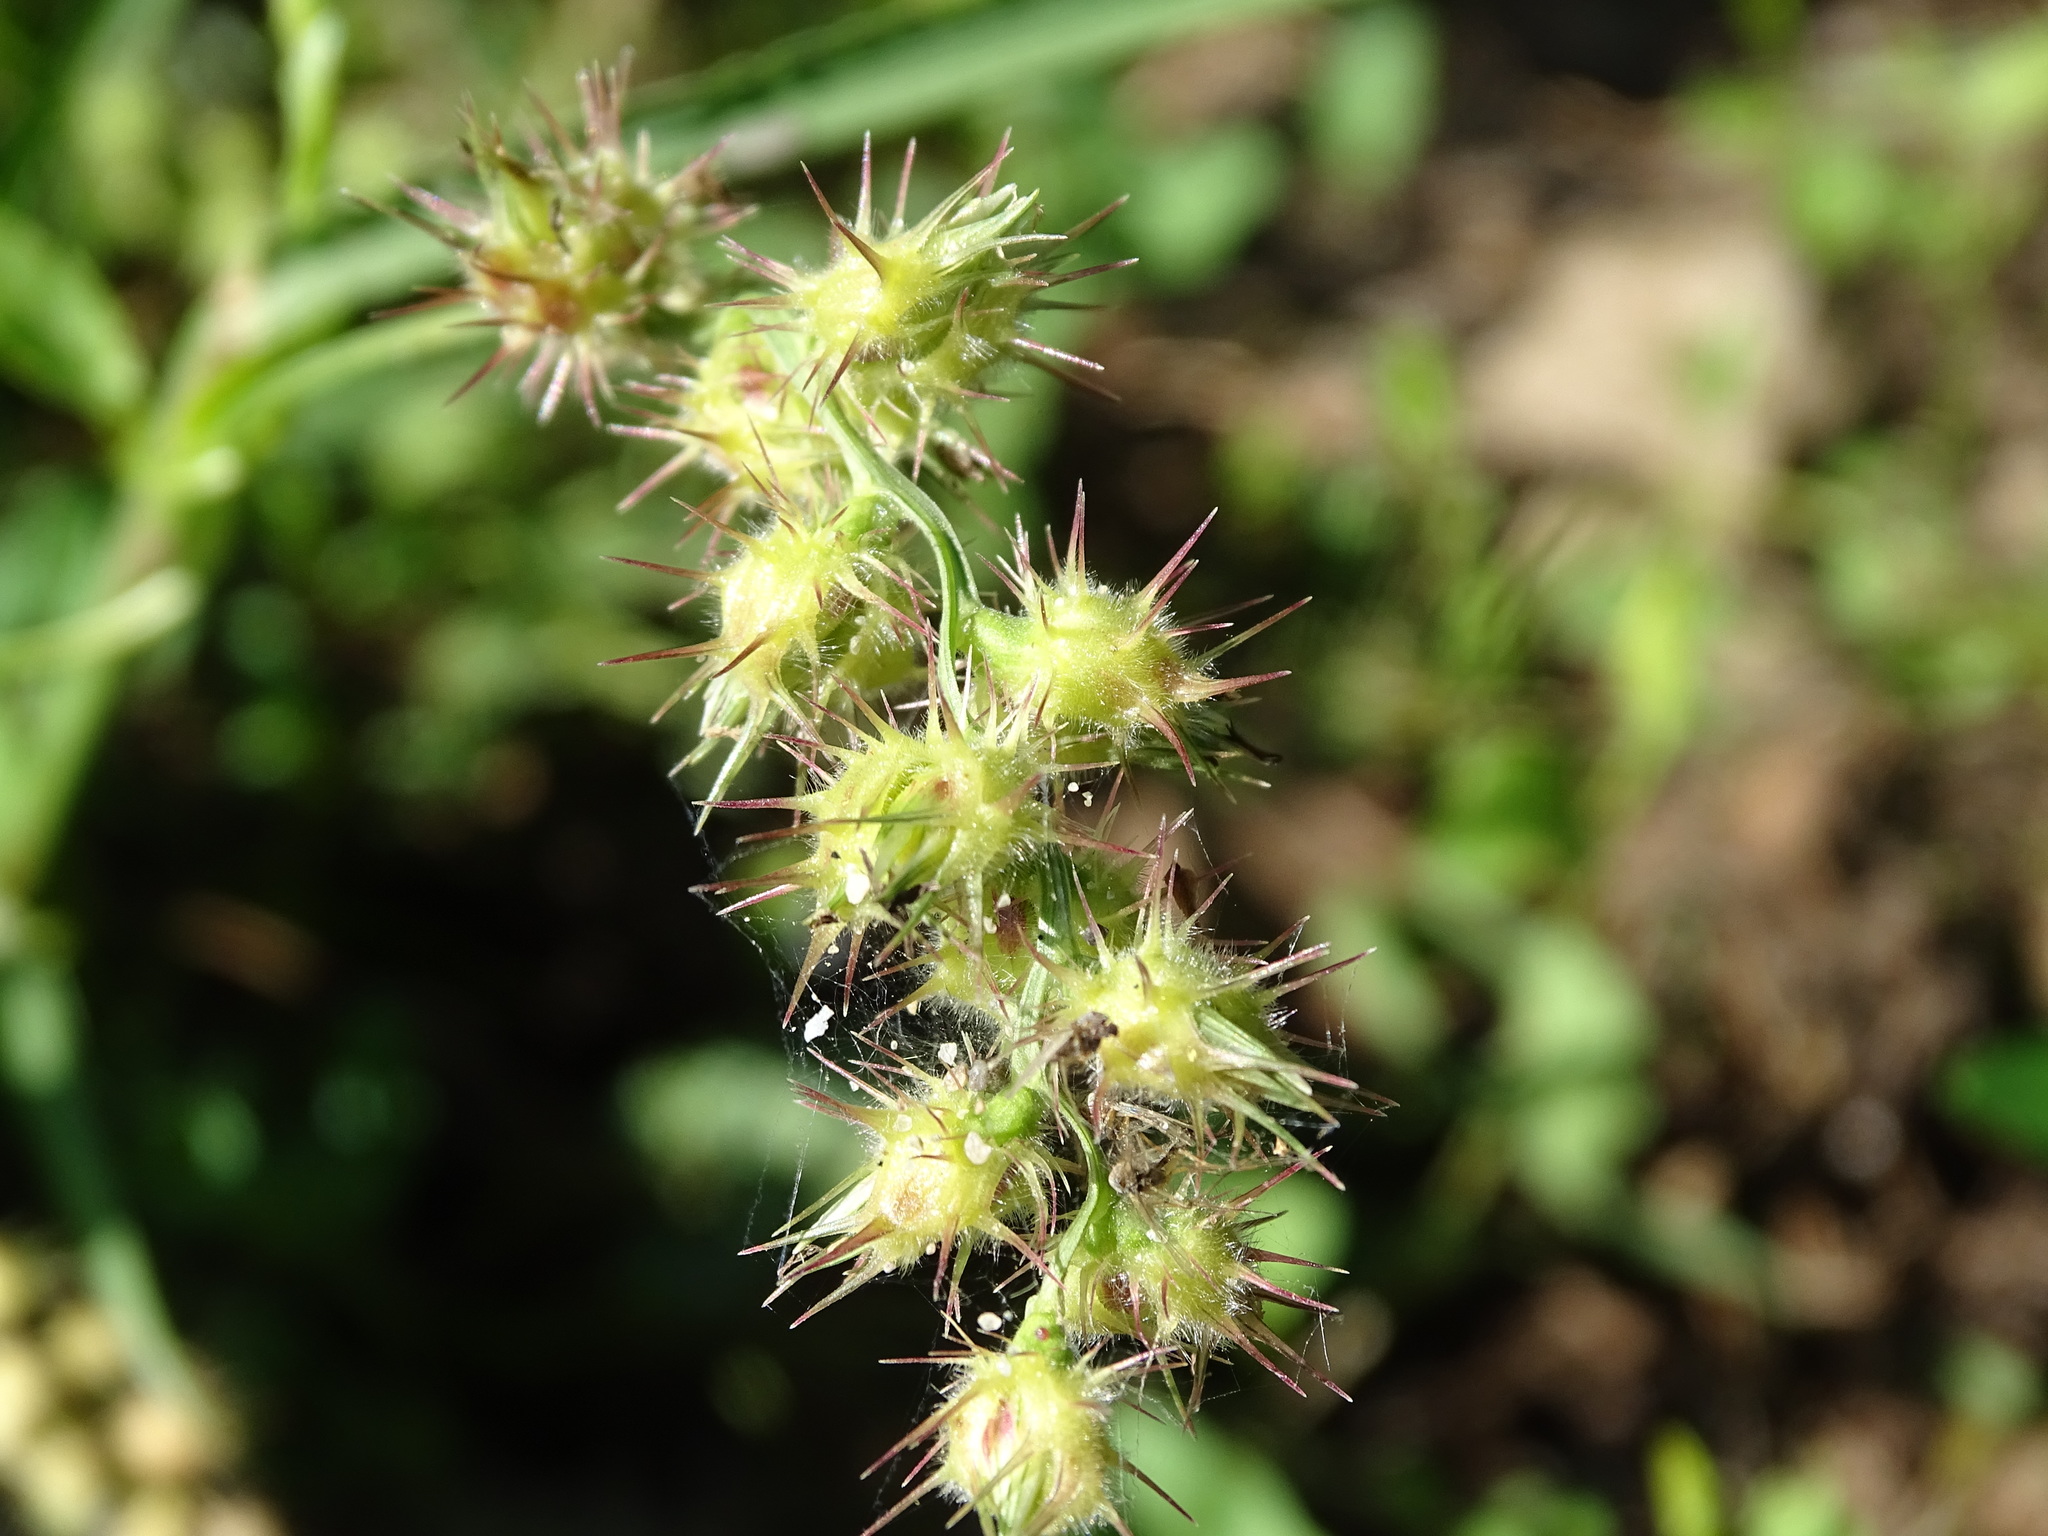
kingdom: Plantae
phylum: Tracheophyta
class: Liliopsida
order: Poales
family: Poaceae
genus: Cenchrus
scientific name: Cenchrus longispinus
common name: Mat sandbur
